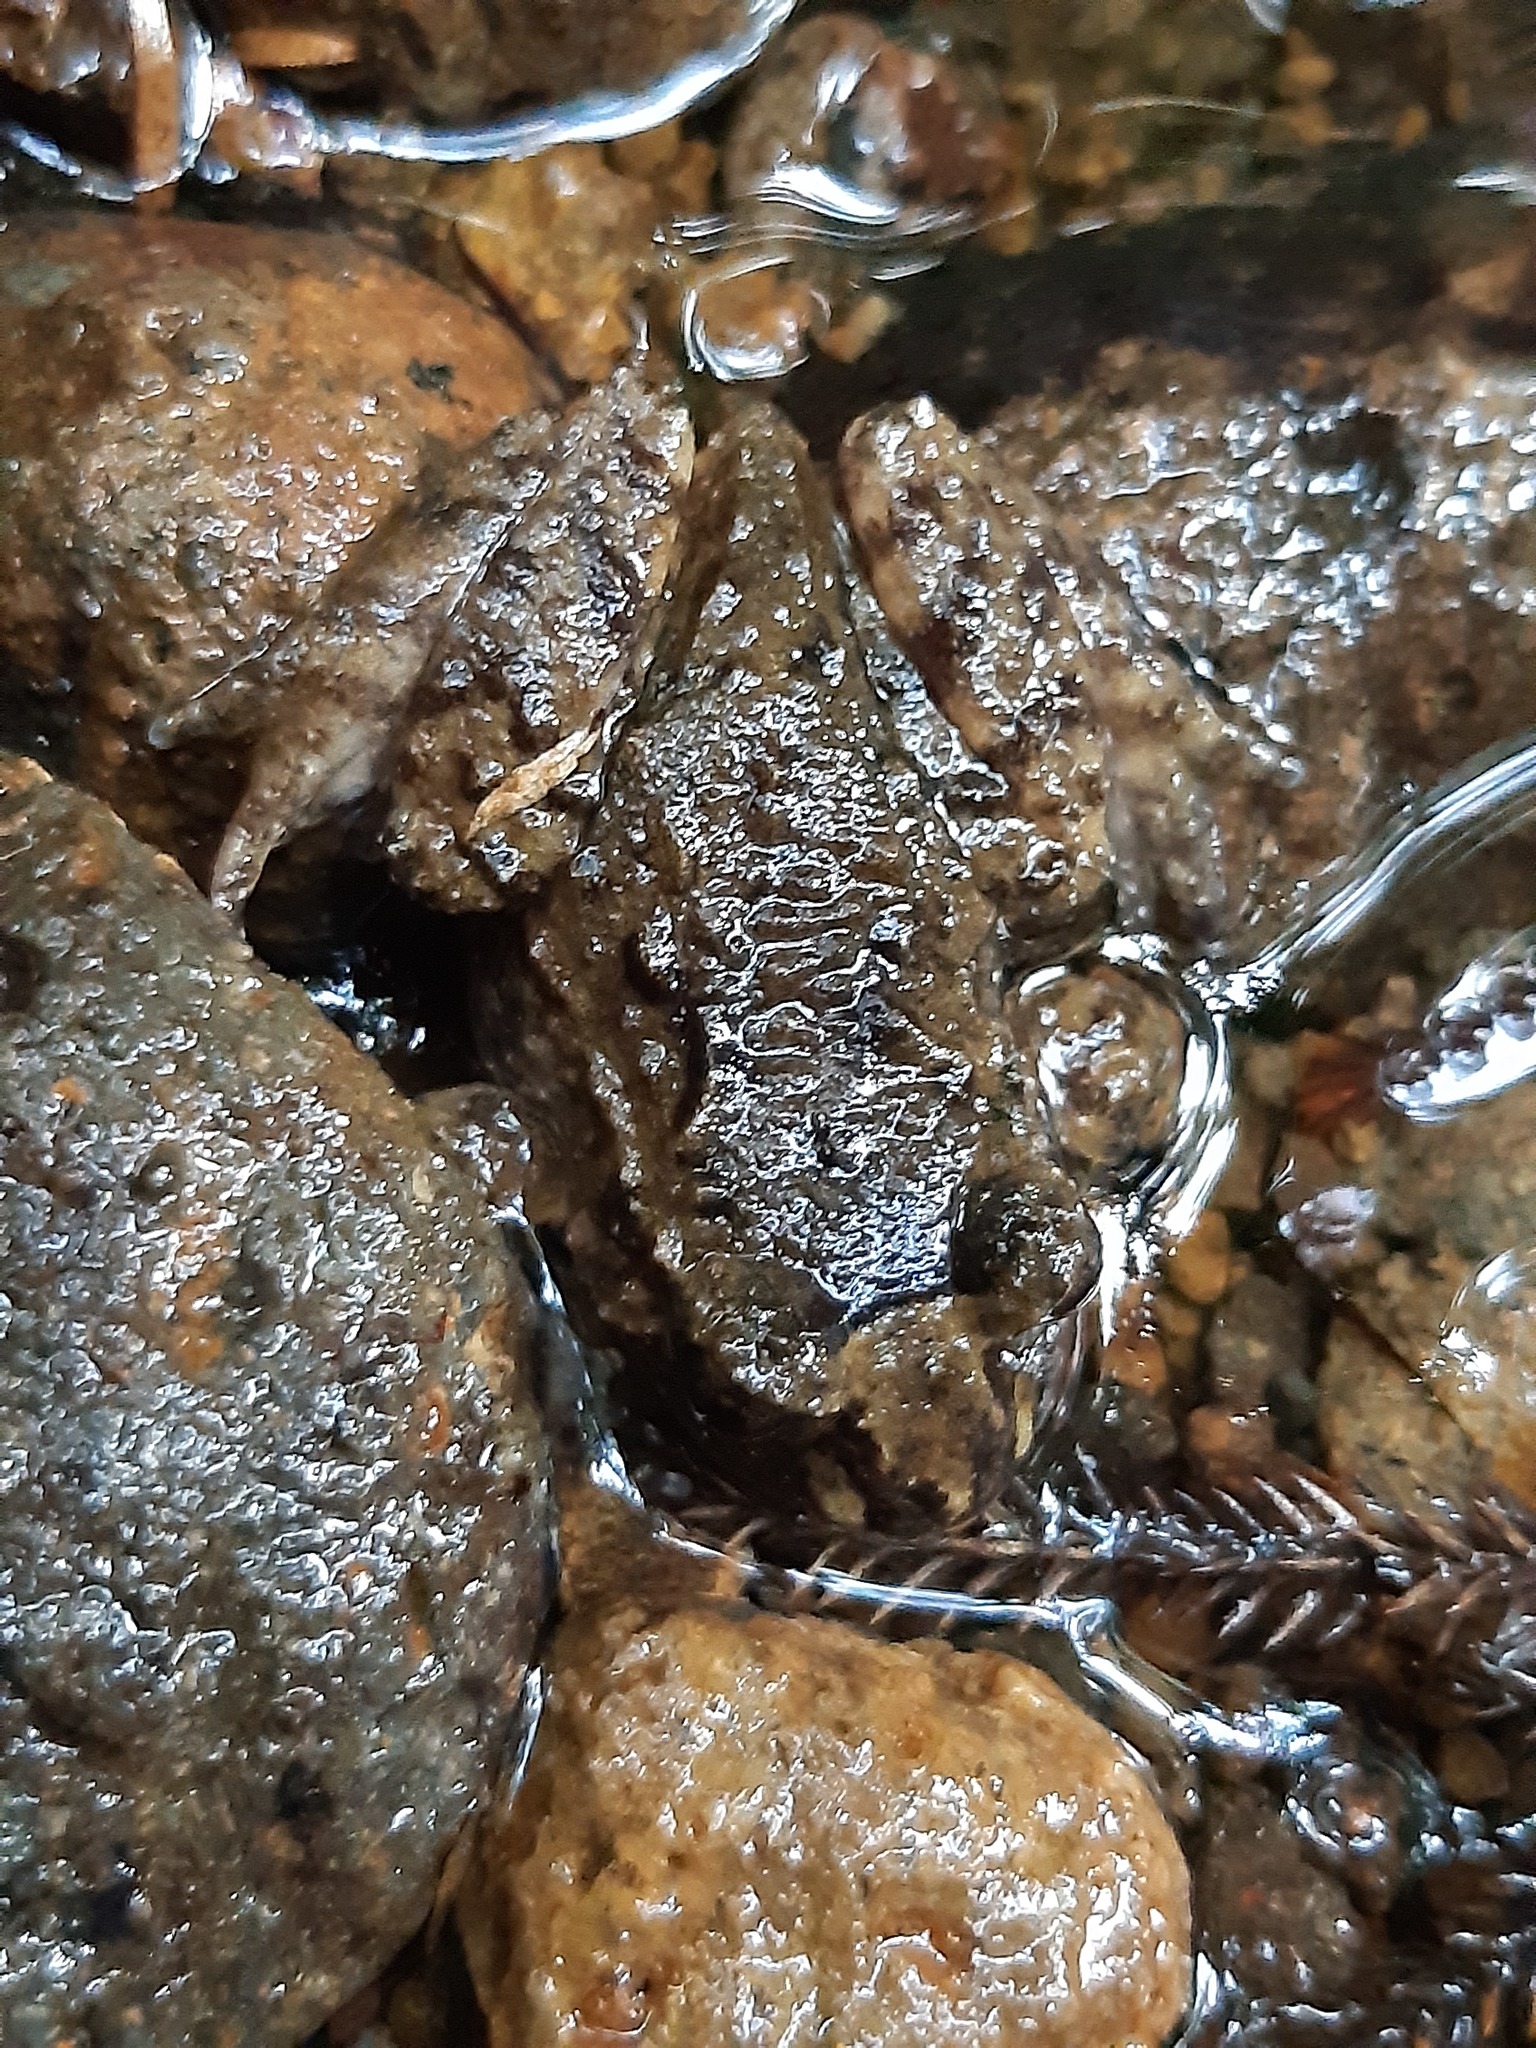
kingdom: Animalia
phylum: Chordata
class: Amphibia
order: Anura
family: Leiopelmatidae
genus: Leiopelma
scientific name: Leiopelma hochstetteri
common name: Hochstetters new zealand frog
